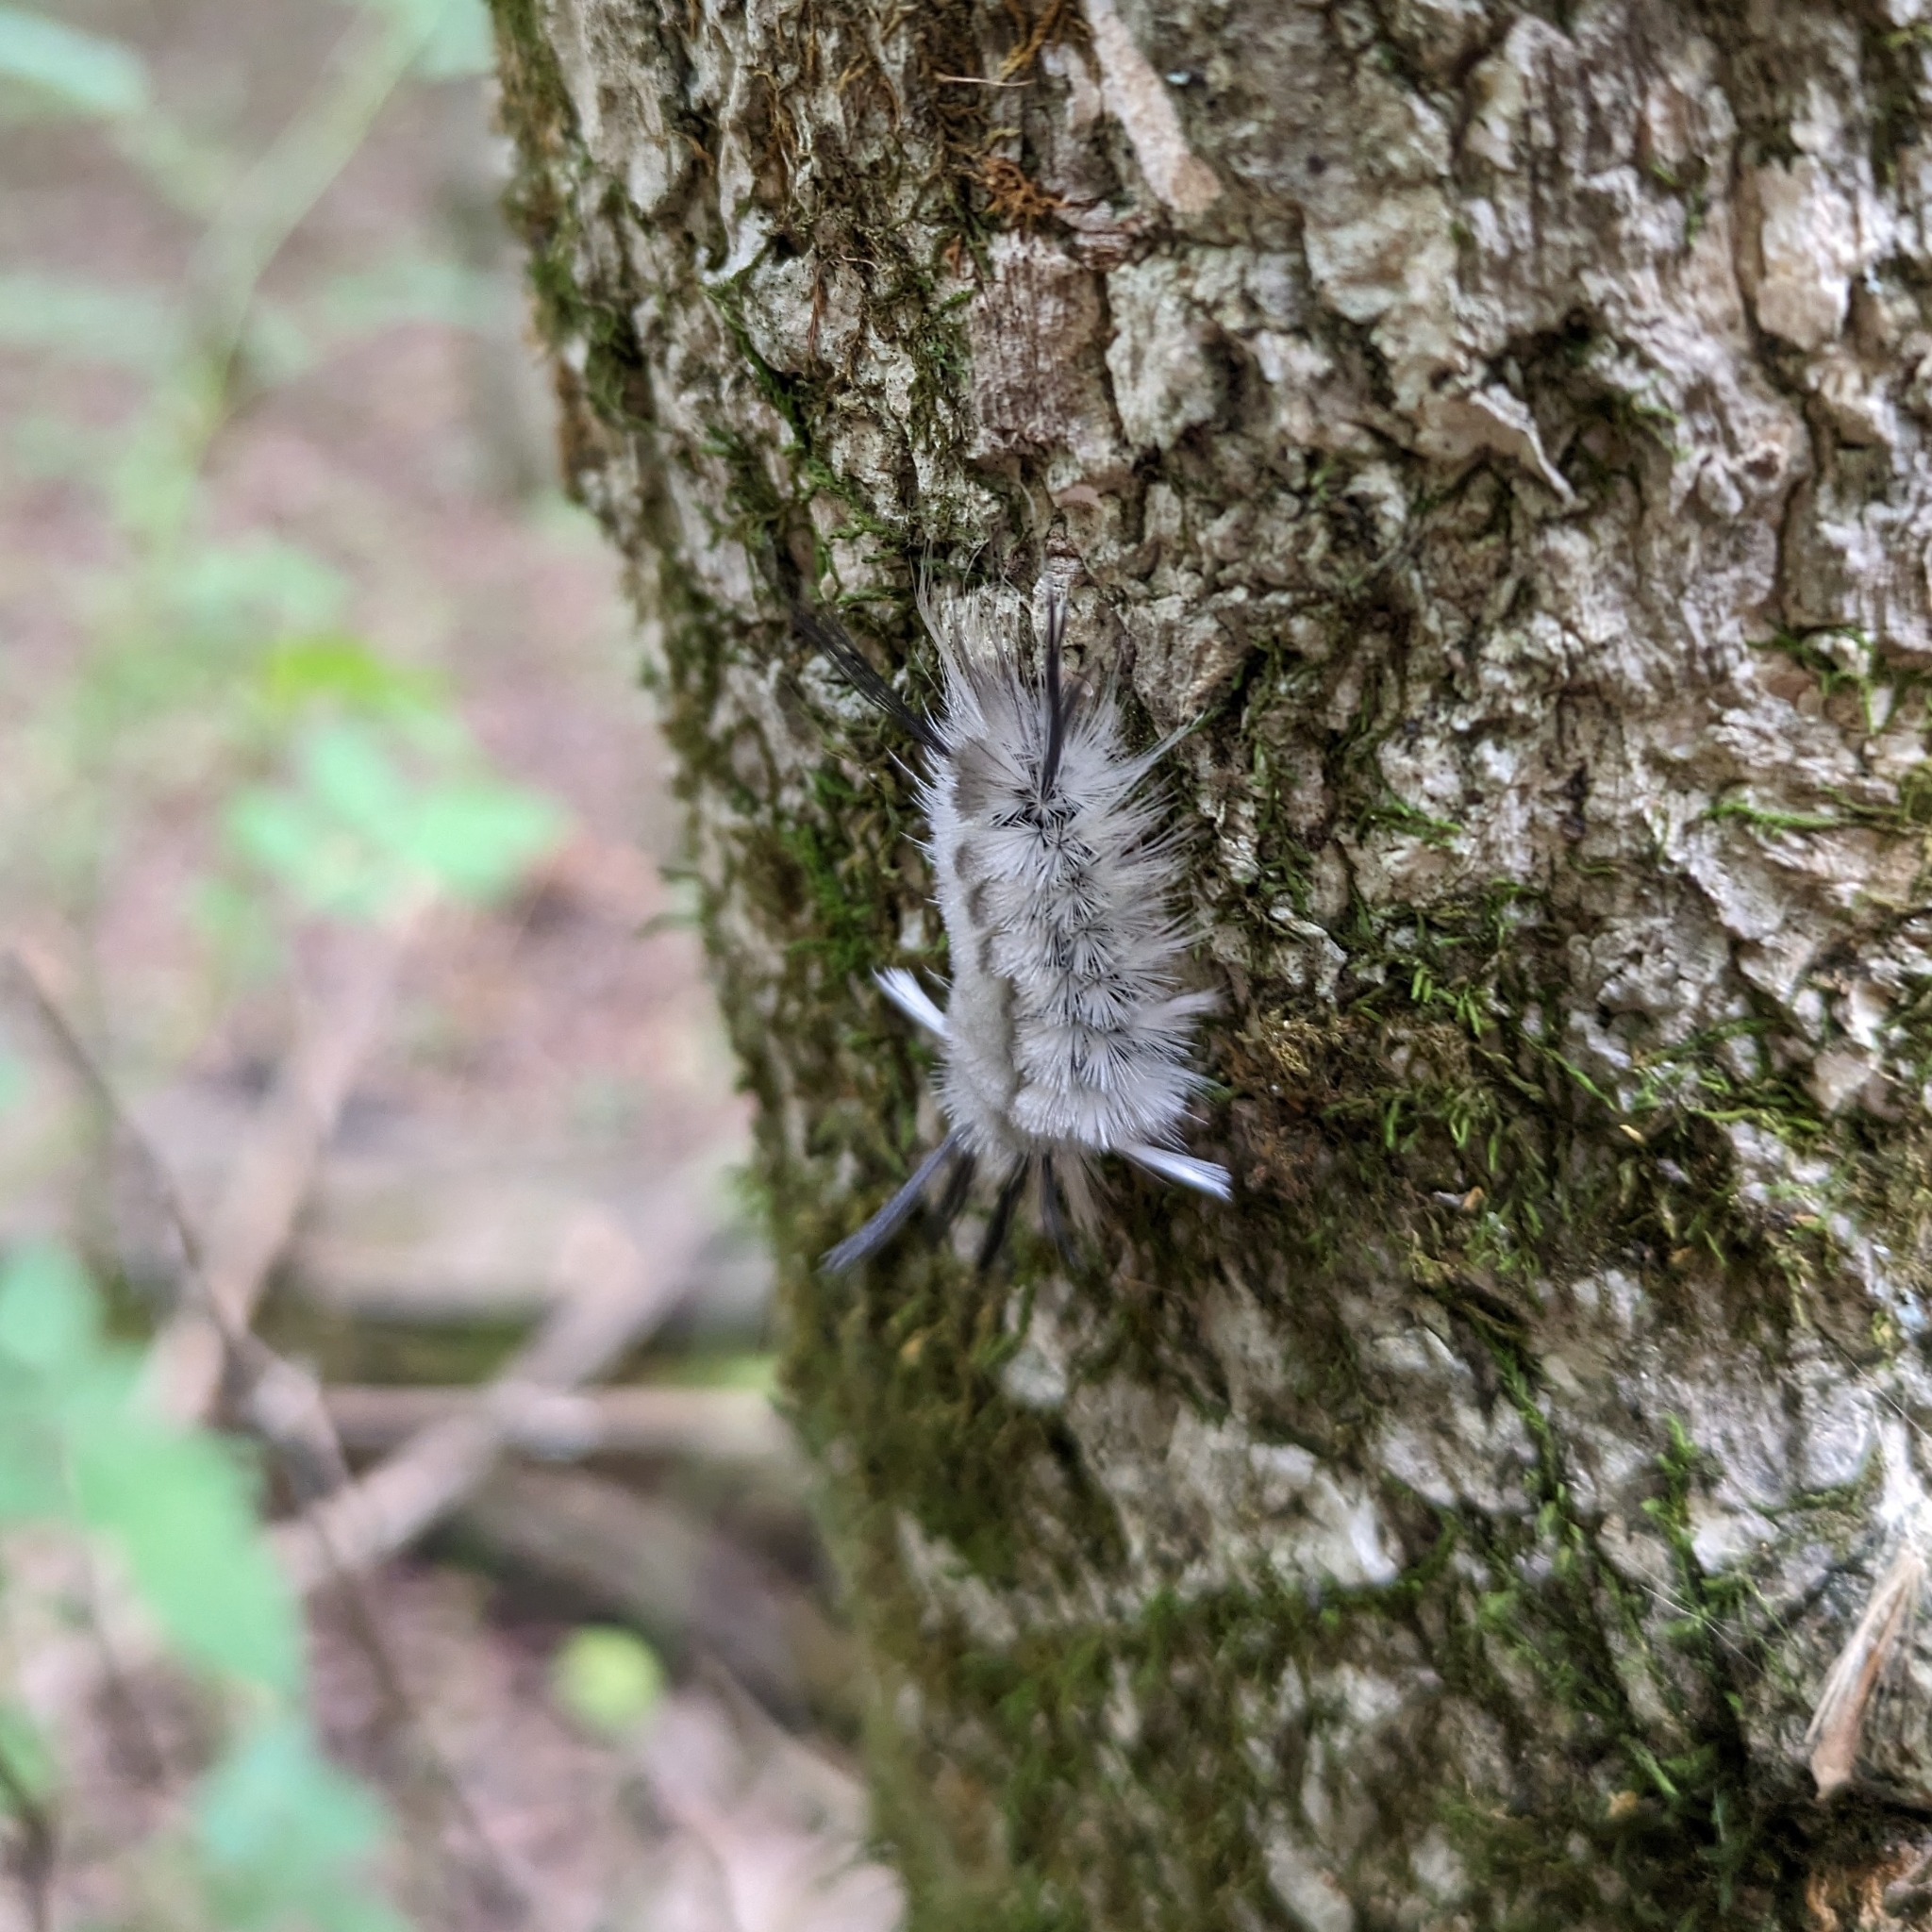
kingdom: Animalia
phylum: Arthropoda
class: Insecta
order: Lepidoptera
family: Erebidae
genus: Halysidota
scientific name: Halysidota tessellaris
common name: Banded tussock moth
